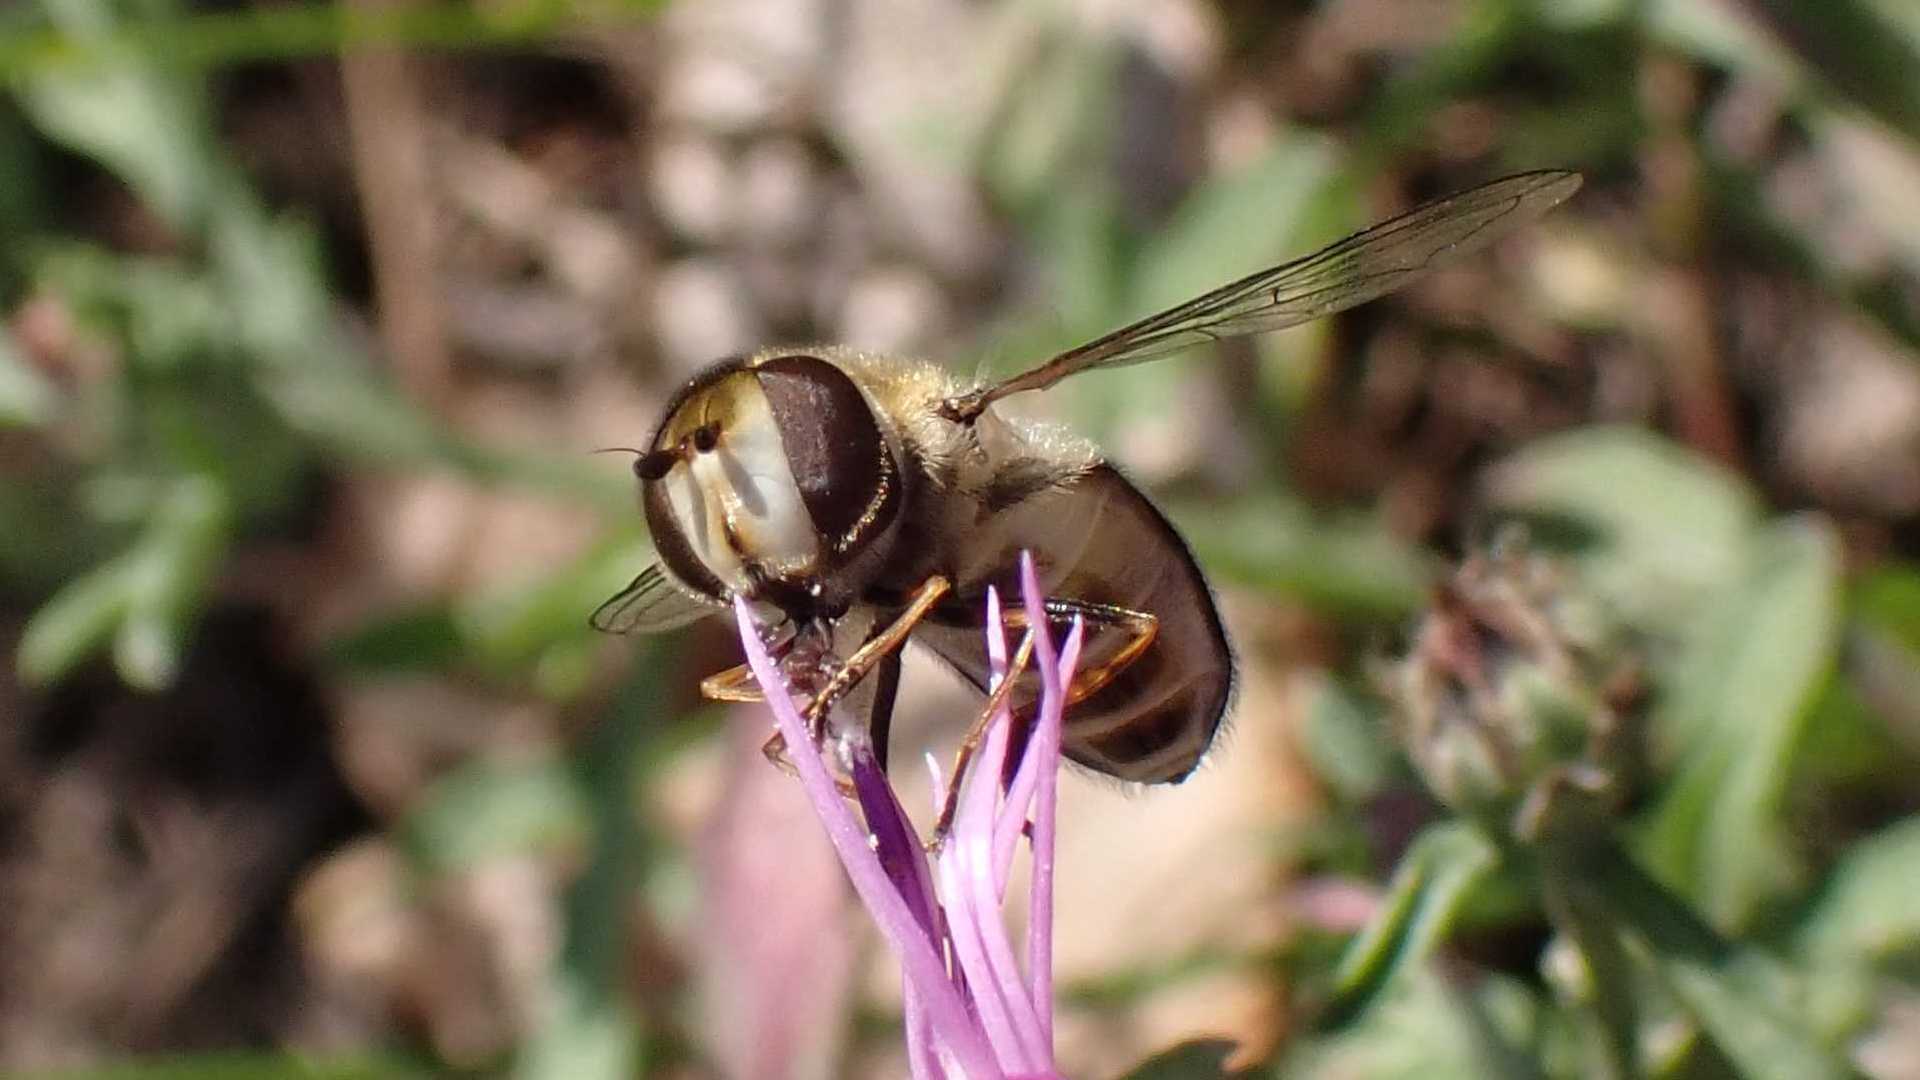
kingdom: Animalia
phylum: Arthropoda
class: Insecta
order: Diptera
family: Syrphidae
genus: Scaeva
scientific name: Scaeva pyrastri
